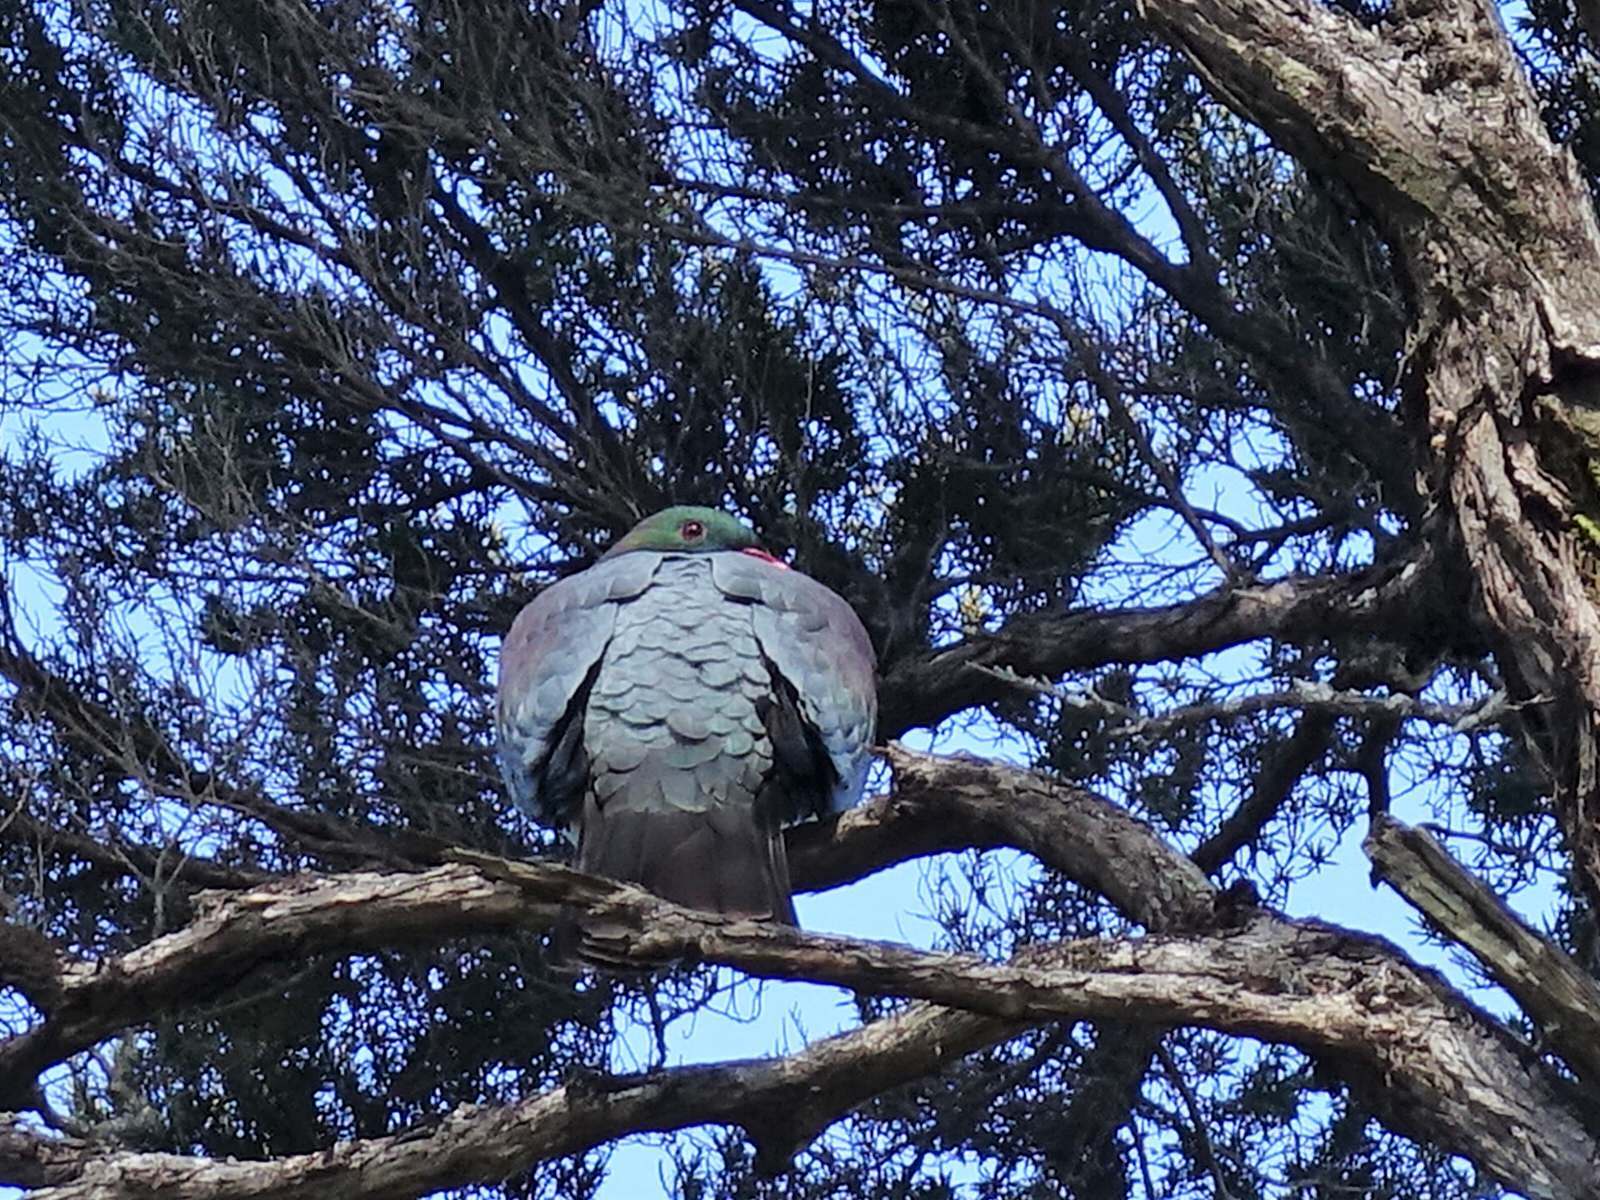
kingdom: Animalia
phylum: Chordata
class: Aves
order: Columbiformes
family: Columbidae
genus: Hemiphaga
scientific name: Hemiphaga novaeseelandiae
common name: New zealand pigeon
